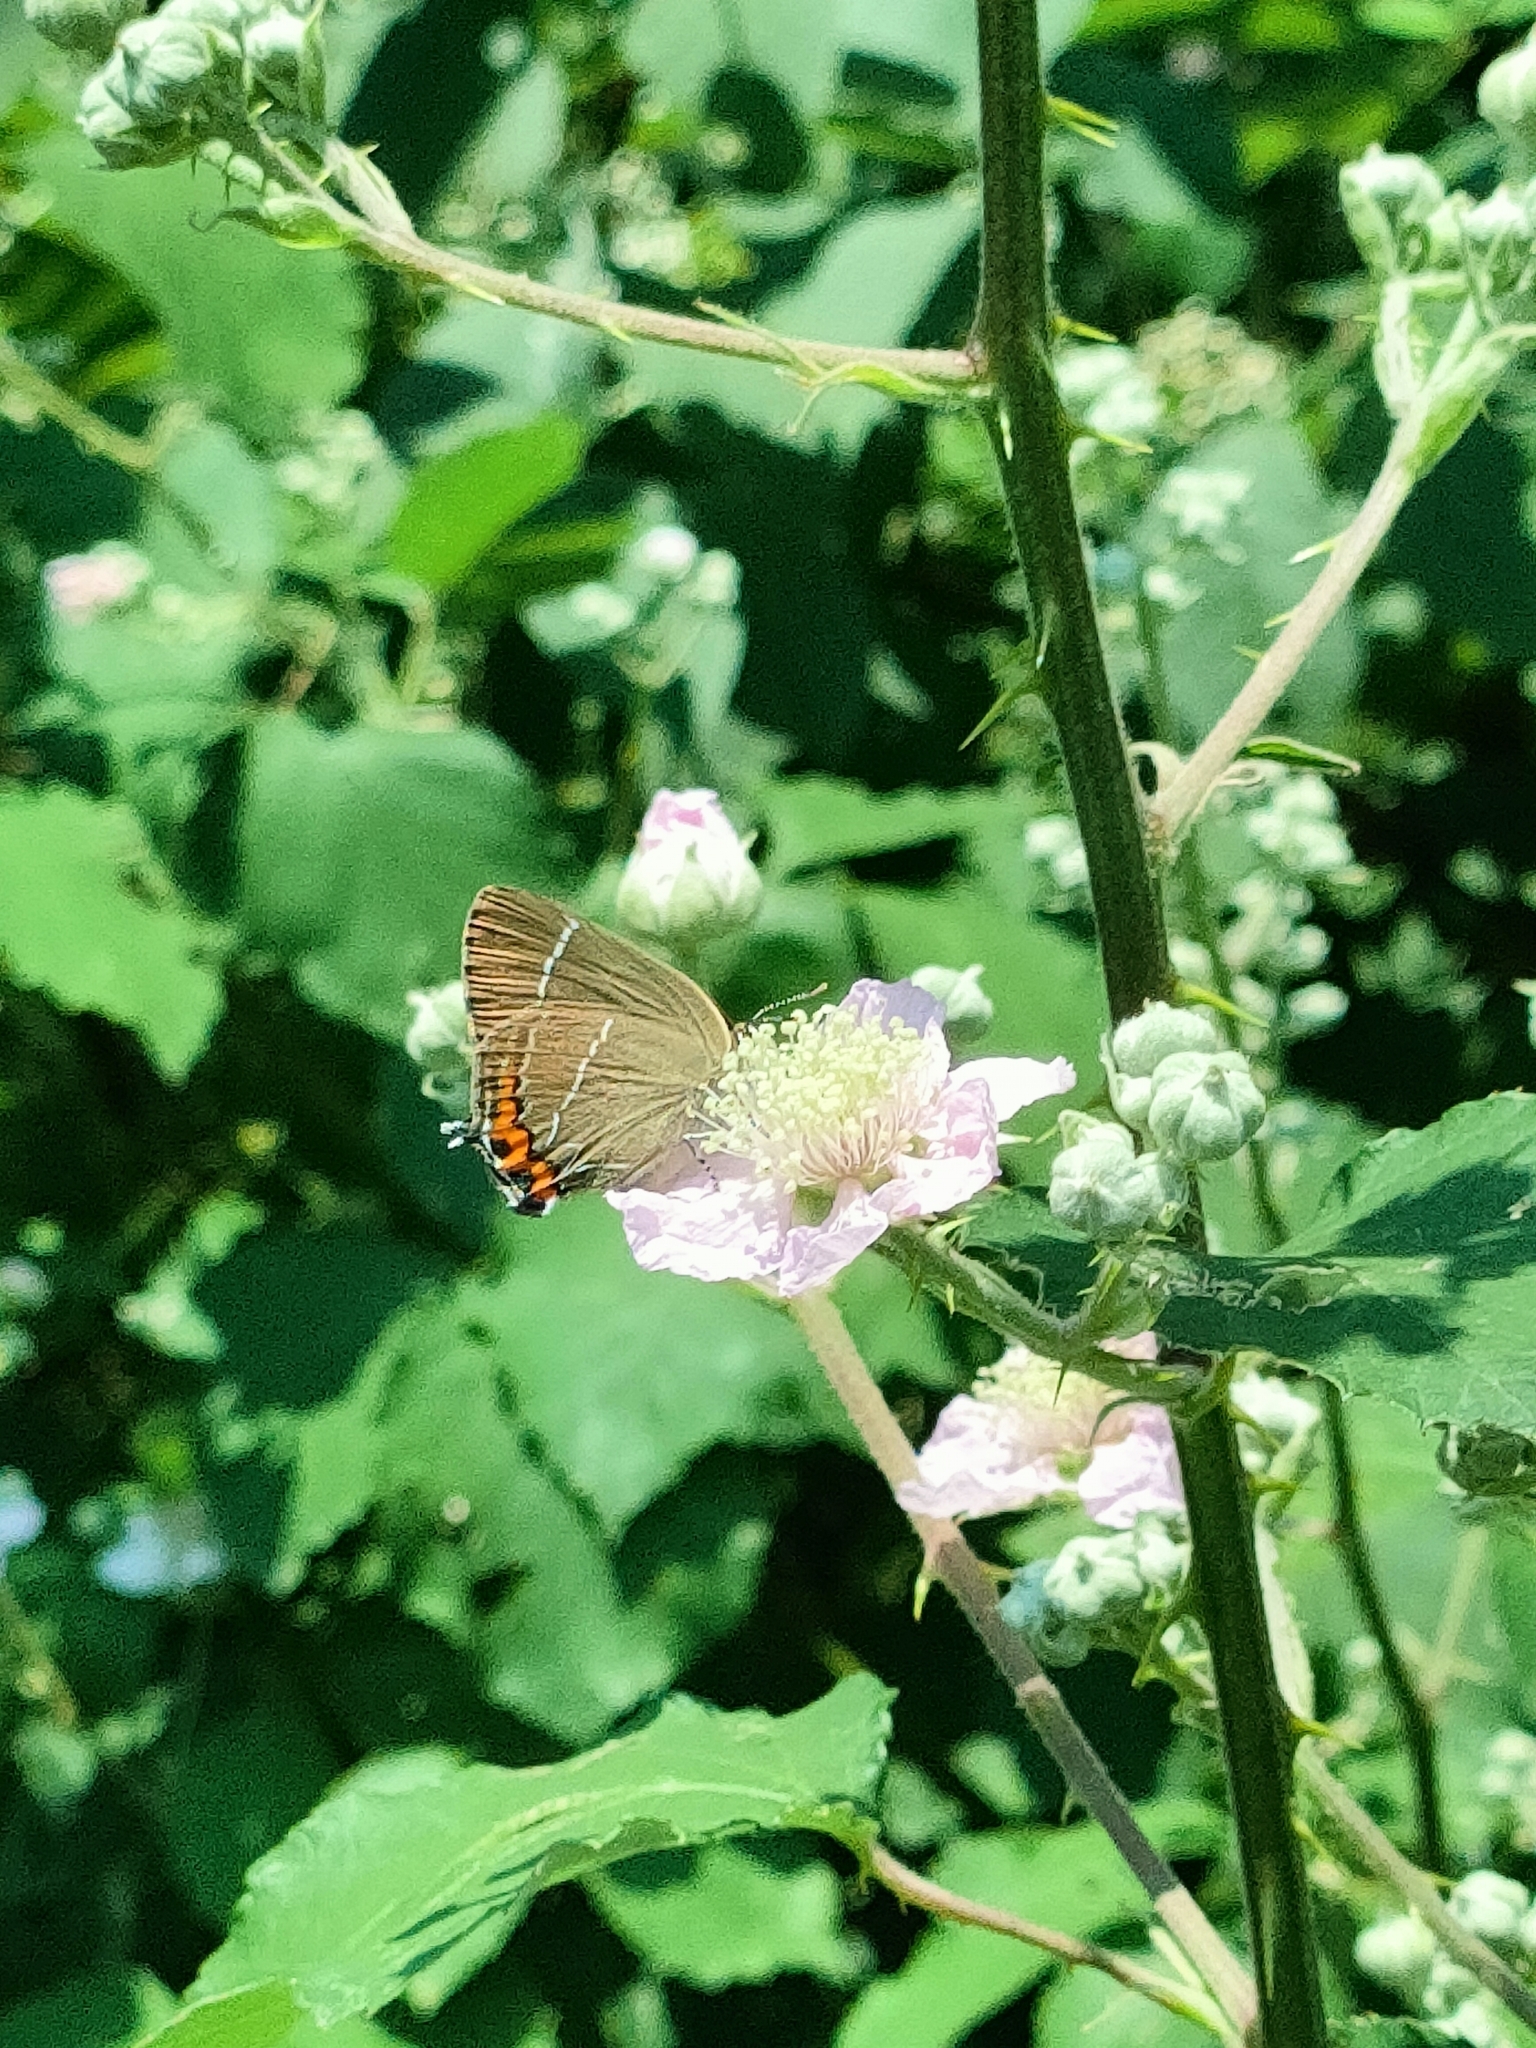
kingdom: Animalia
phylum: Arthropoda
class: Insecta
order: Lepidoptera
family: Lycaenidae
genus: Satyrium
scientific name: Satyrium w-album
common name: White-letter hairstreak
